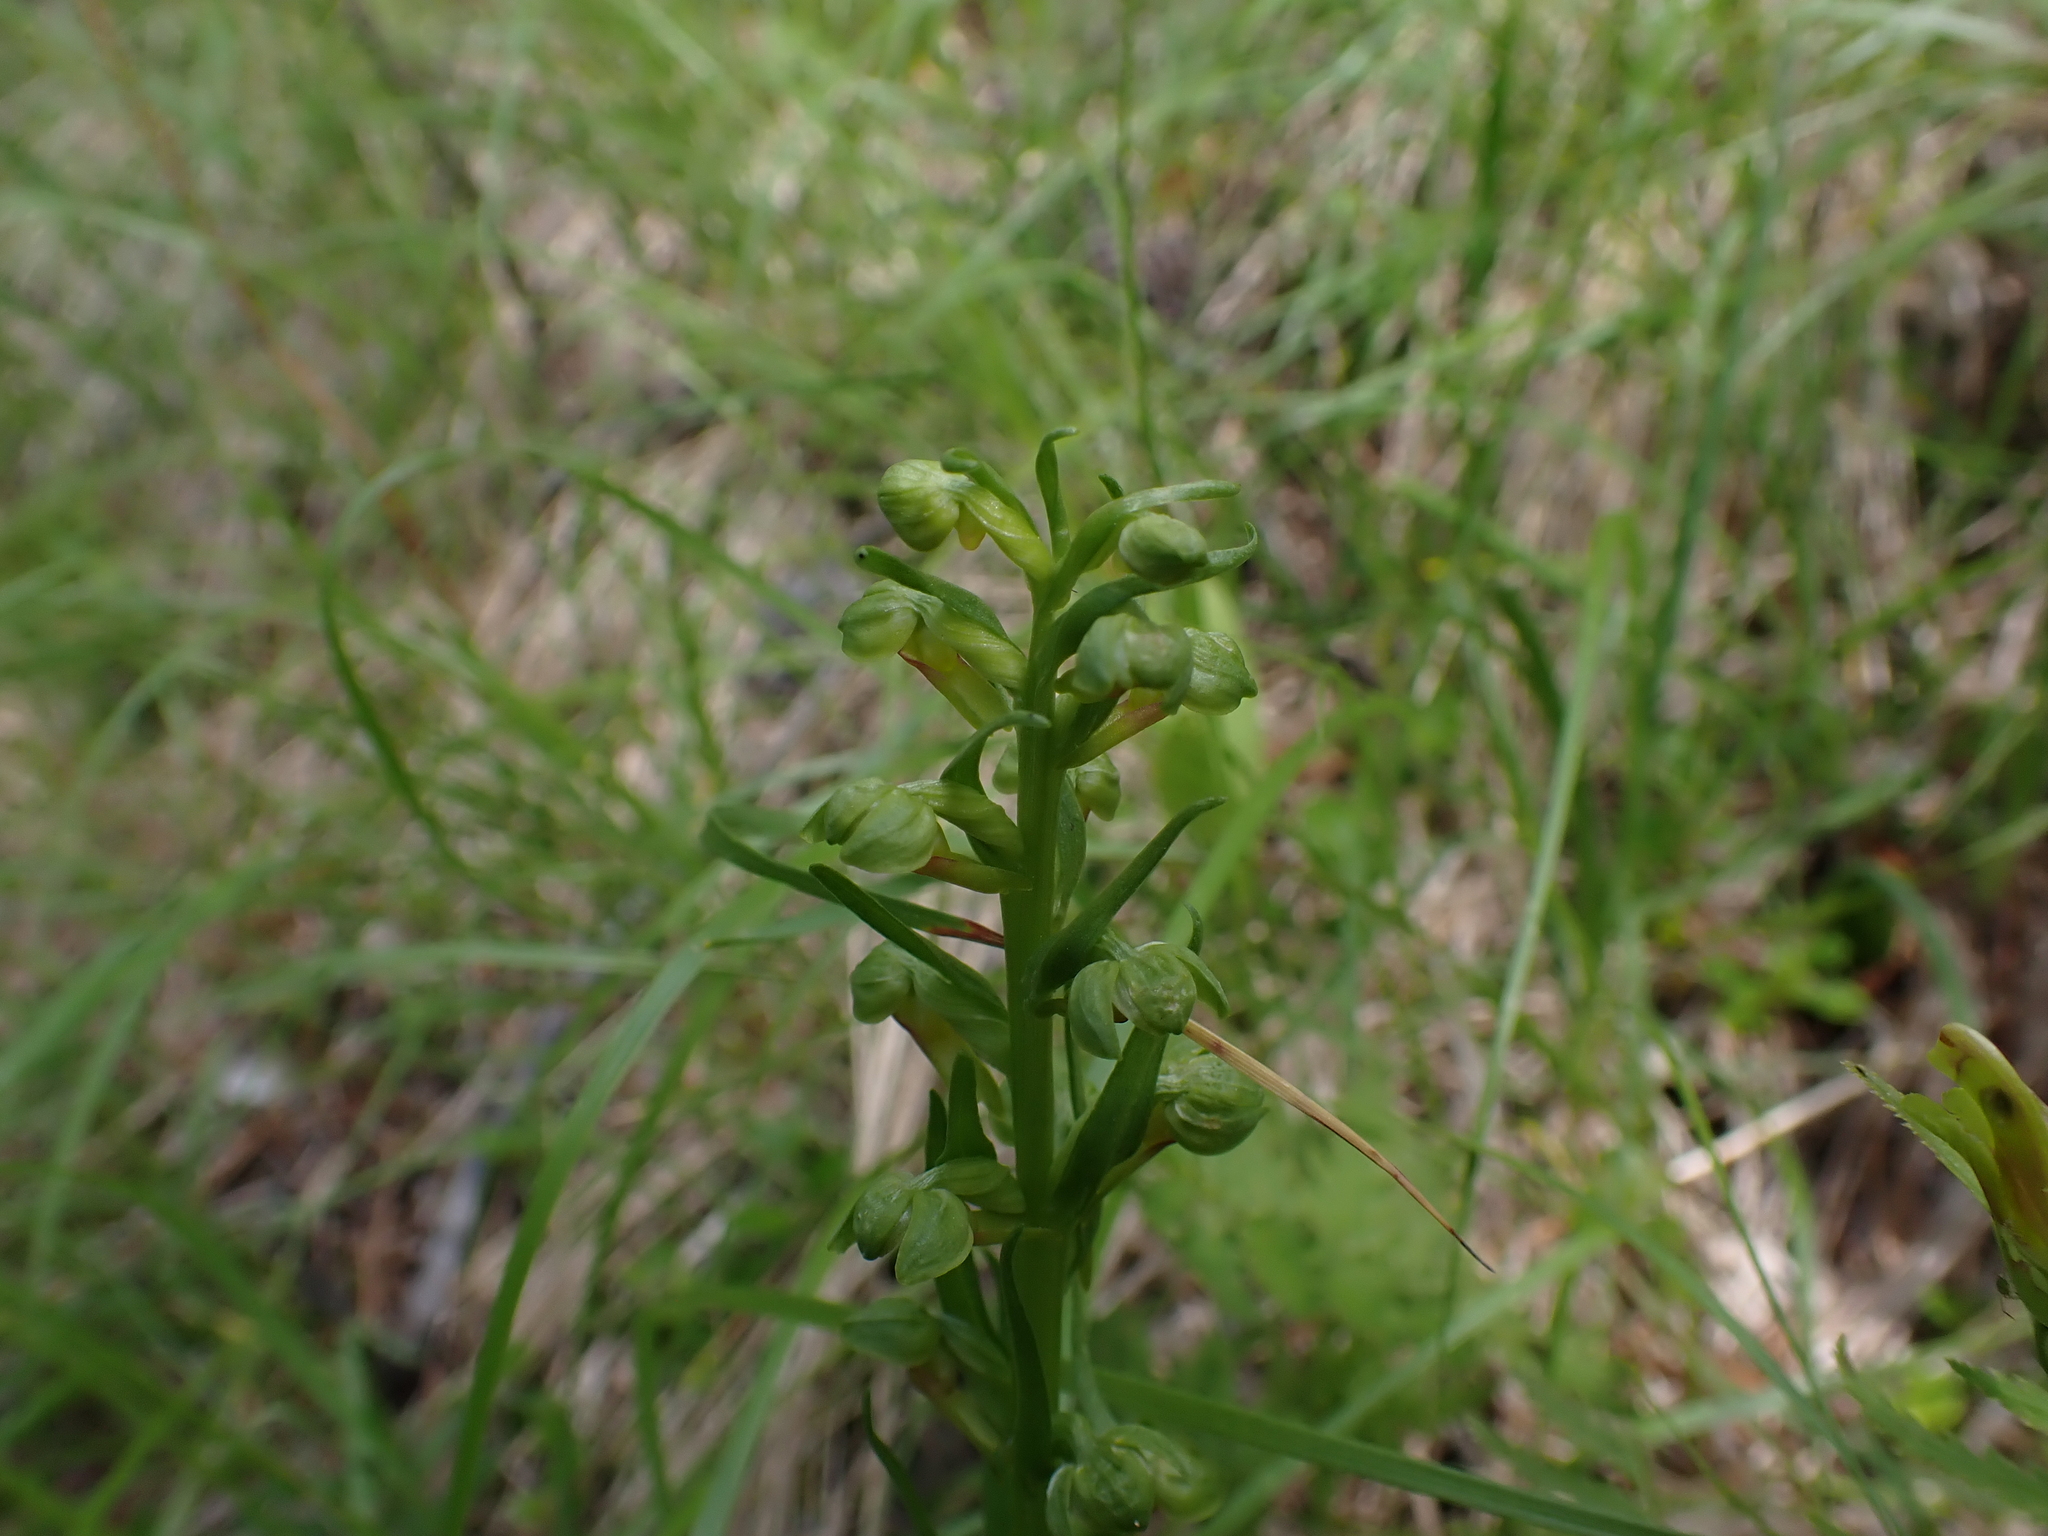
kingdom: Plantae
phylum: Tracheophyta
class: Liliopsida
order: Asparagales
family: Orchidaceae
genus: Dactylorhiza
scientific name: Dactylorhiza viridis
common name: Longbract frog orchid
